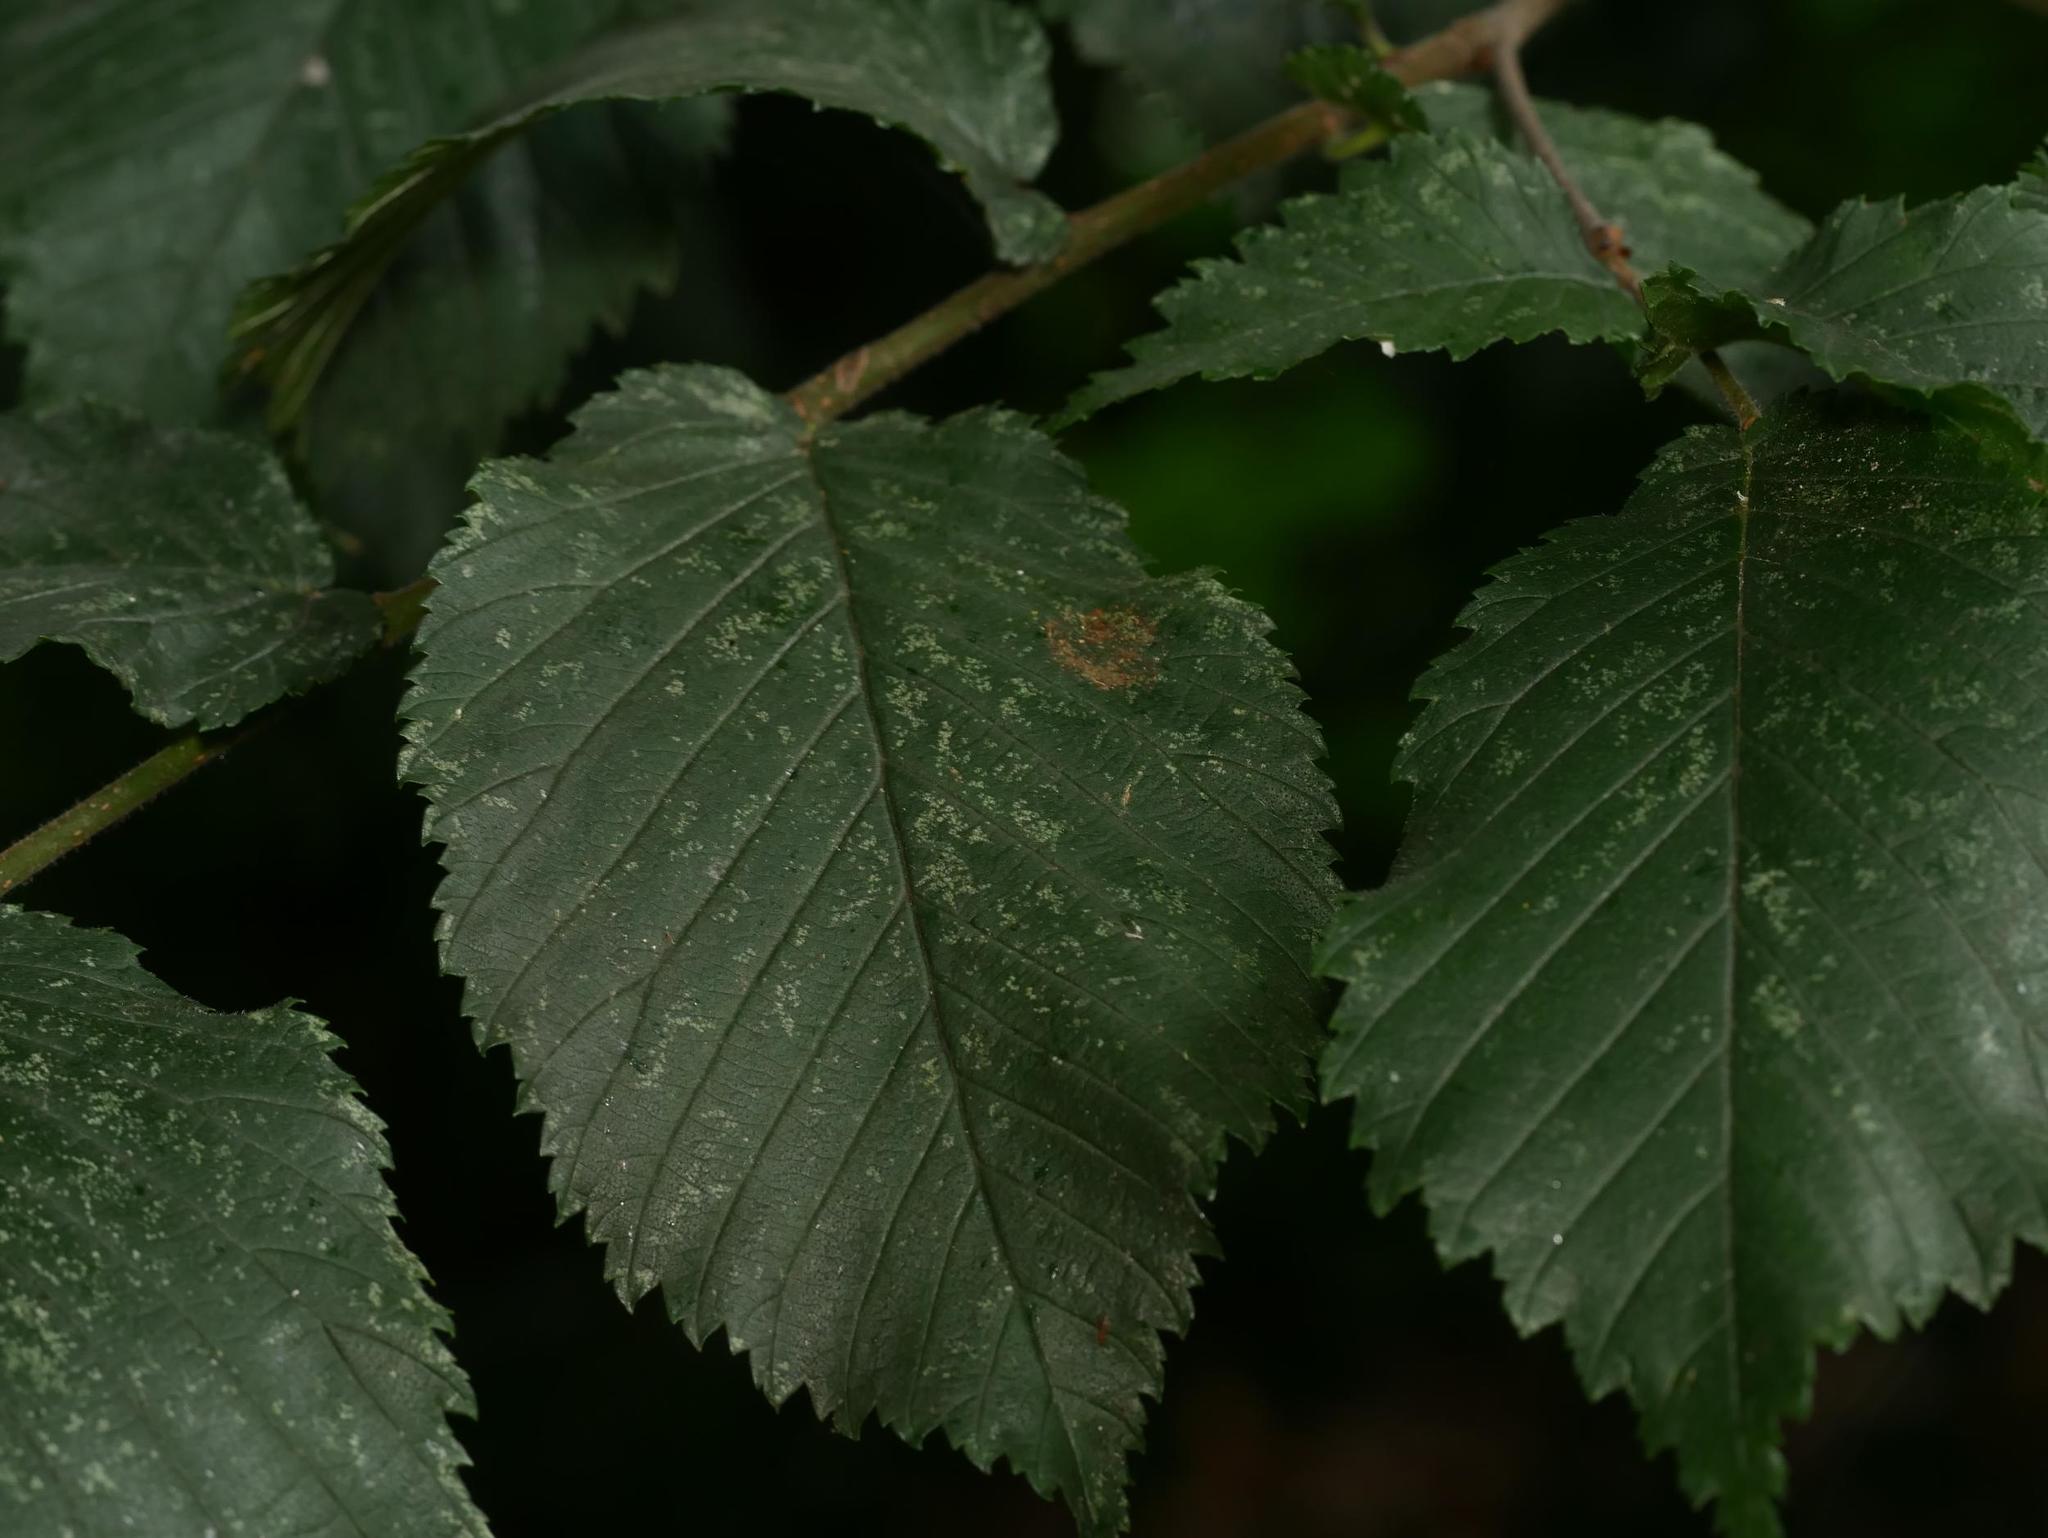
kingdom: Plantae
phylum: Tracheophyta
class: Magnoliopsida
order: Fagales
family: Betulaceae
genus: Carpinus
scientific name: Carpinus betulus
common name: Hornbeam
